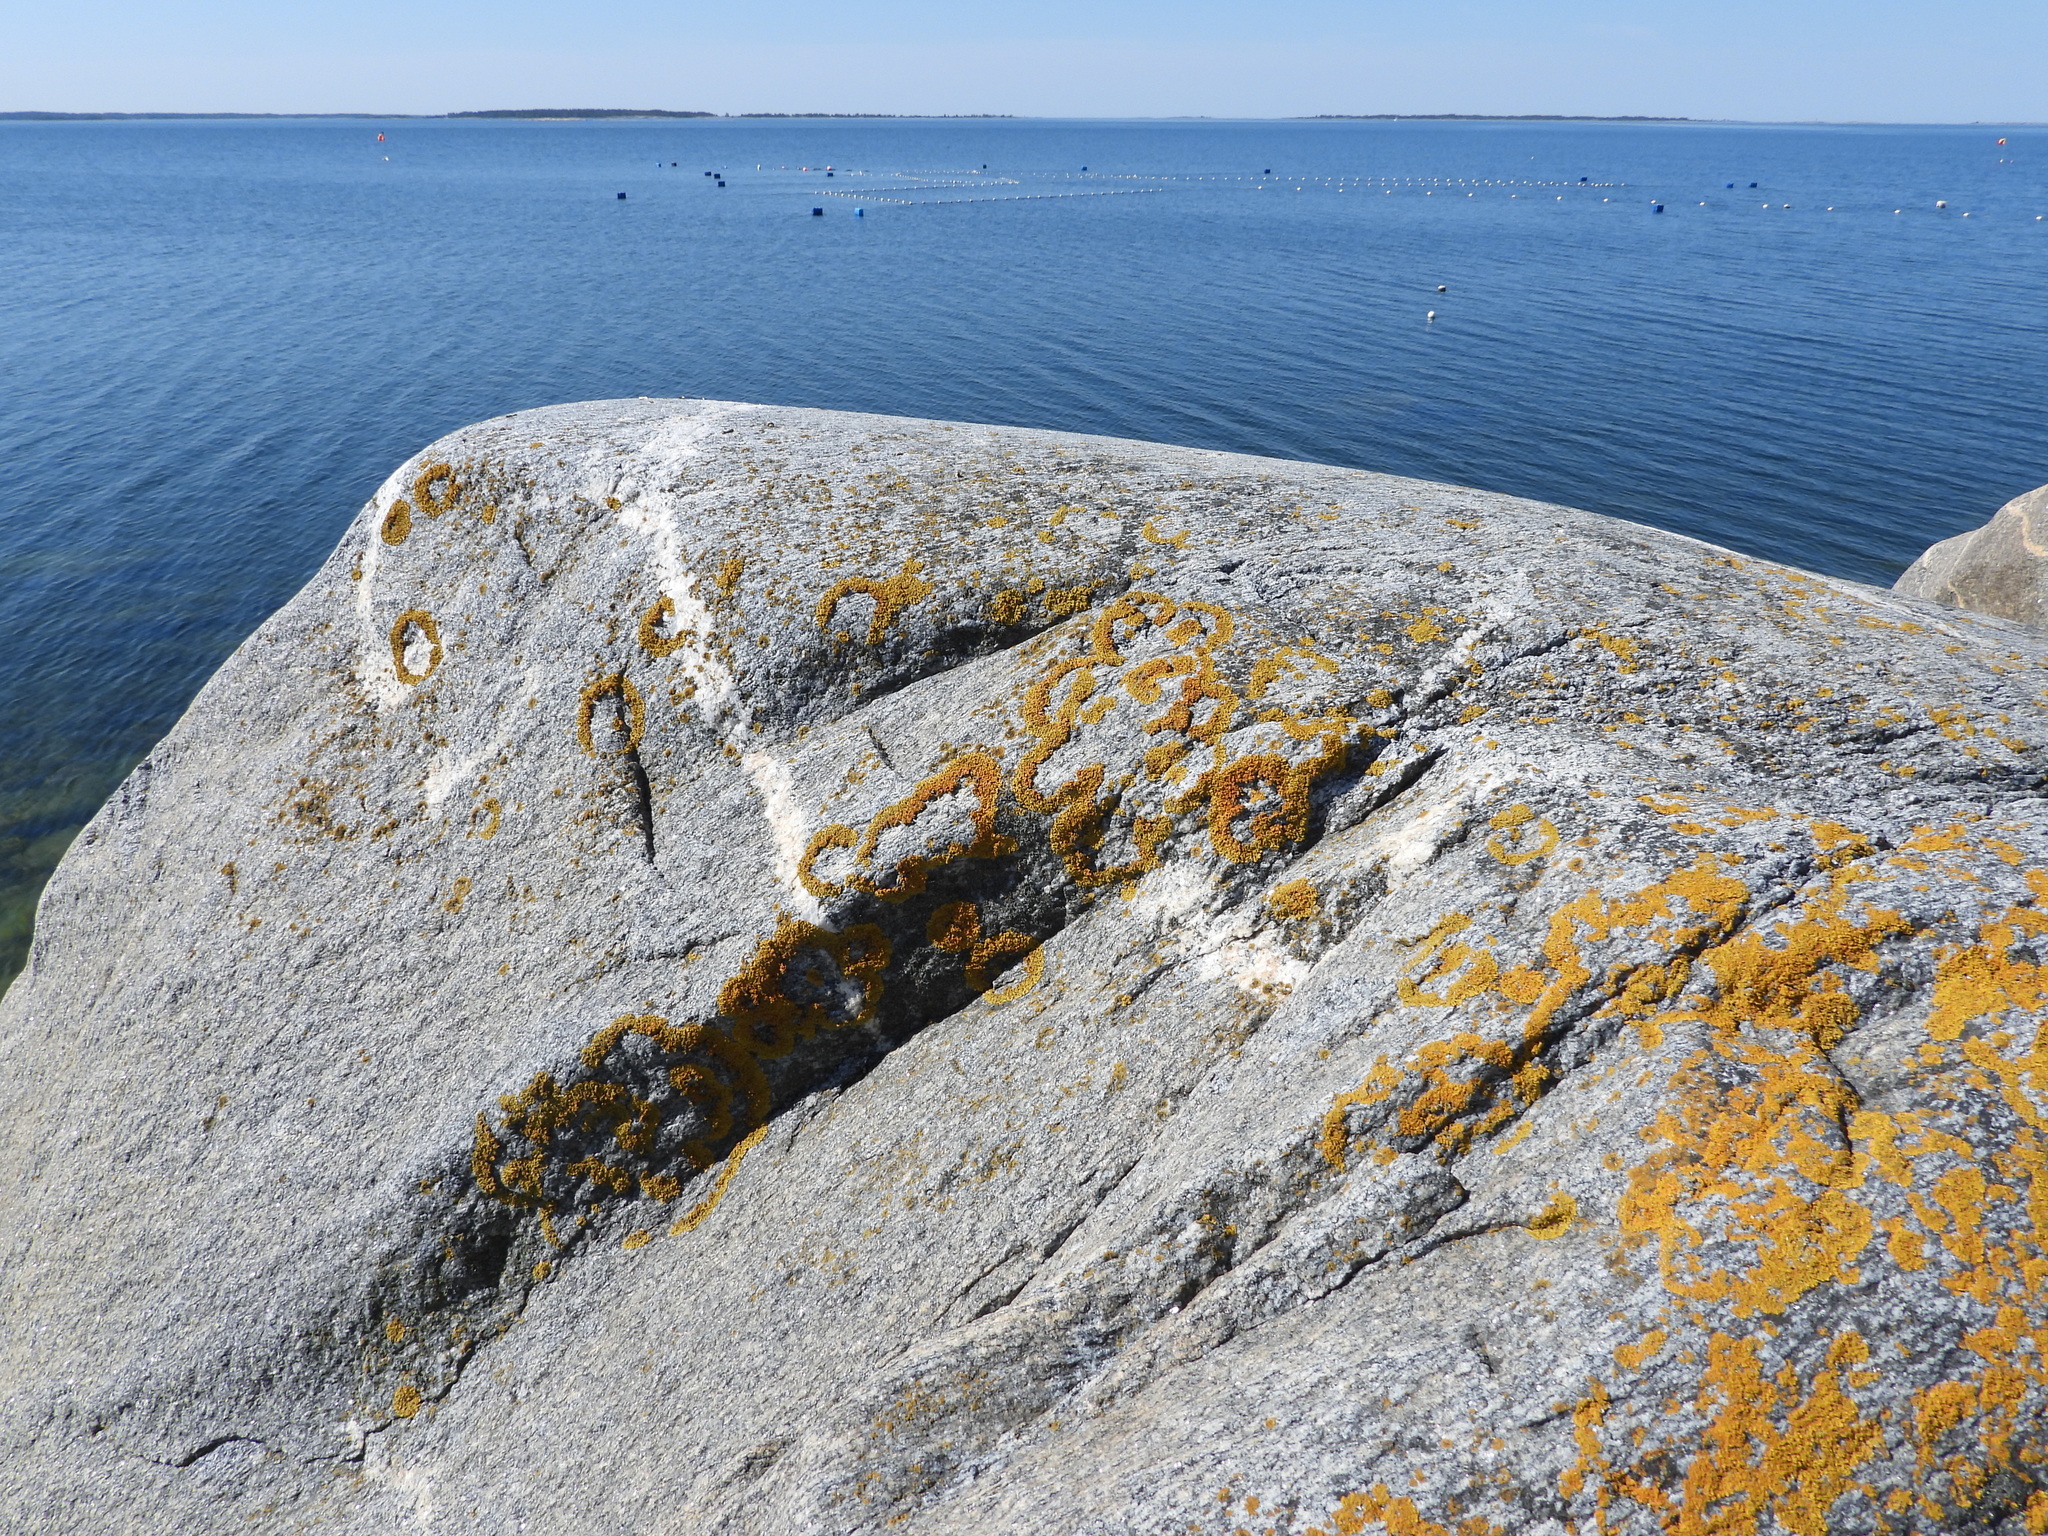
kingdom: Fungi
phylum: Ascomycota
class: Lecanoromycetes
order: Teloschistales
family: Teloschistaceae
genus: Xanthoria
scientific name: Xanthoria parietina
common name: Common orange lichen
